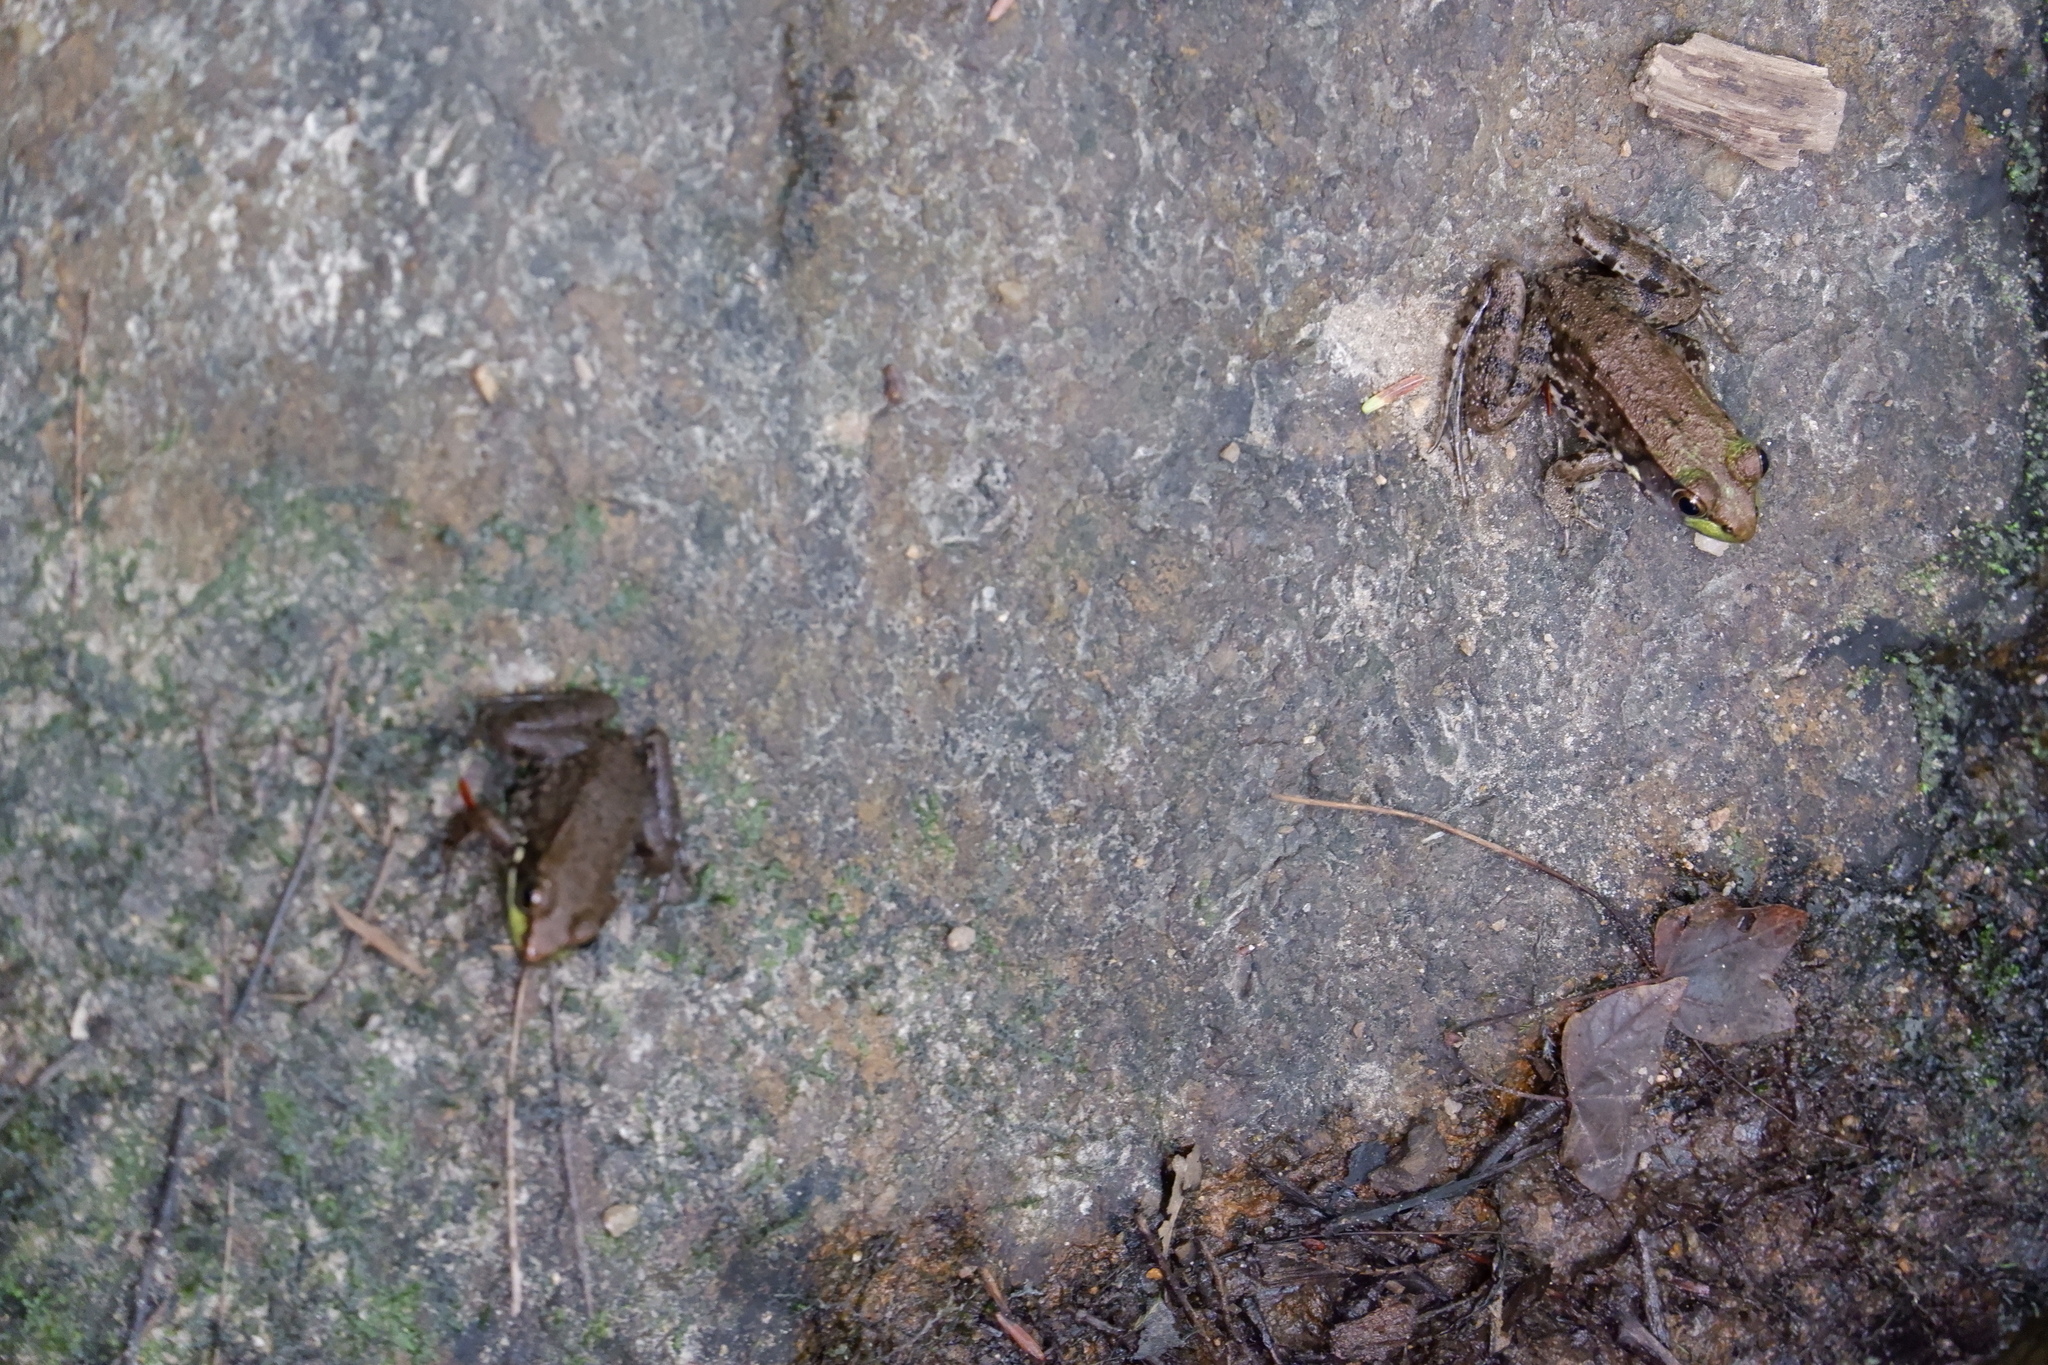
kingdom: Animalia
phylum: Chordata
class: Amphibia
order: Anura
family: Ranidae
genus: Lithobates
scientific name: Lithobates clamitans
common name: Green frog
